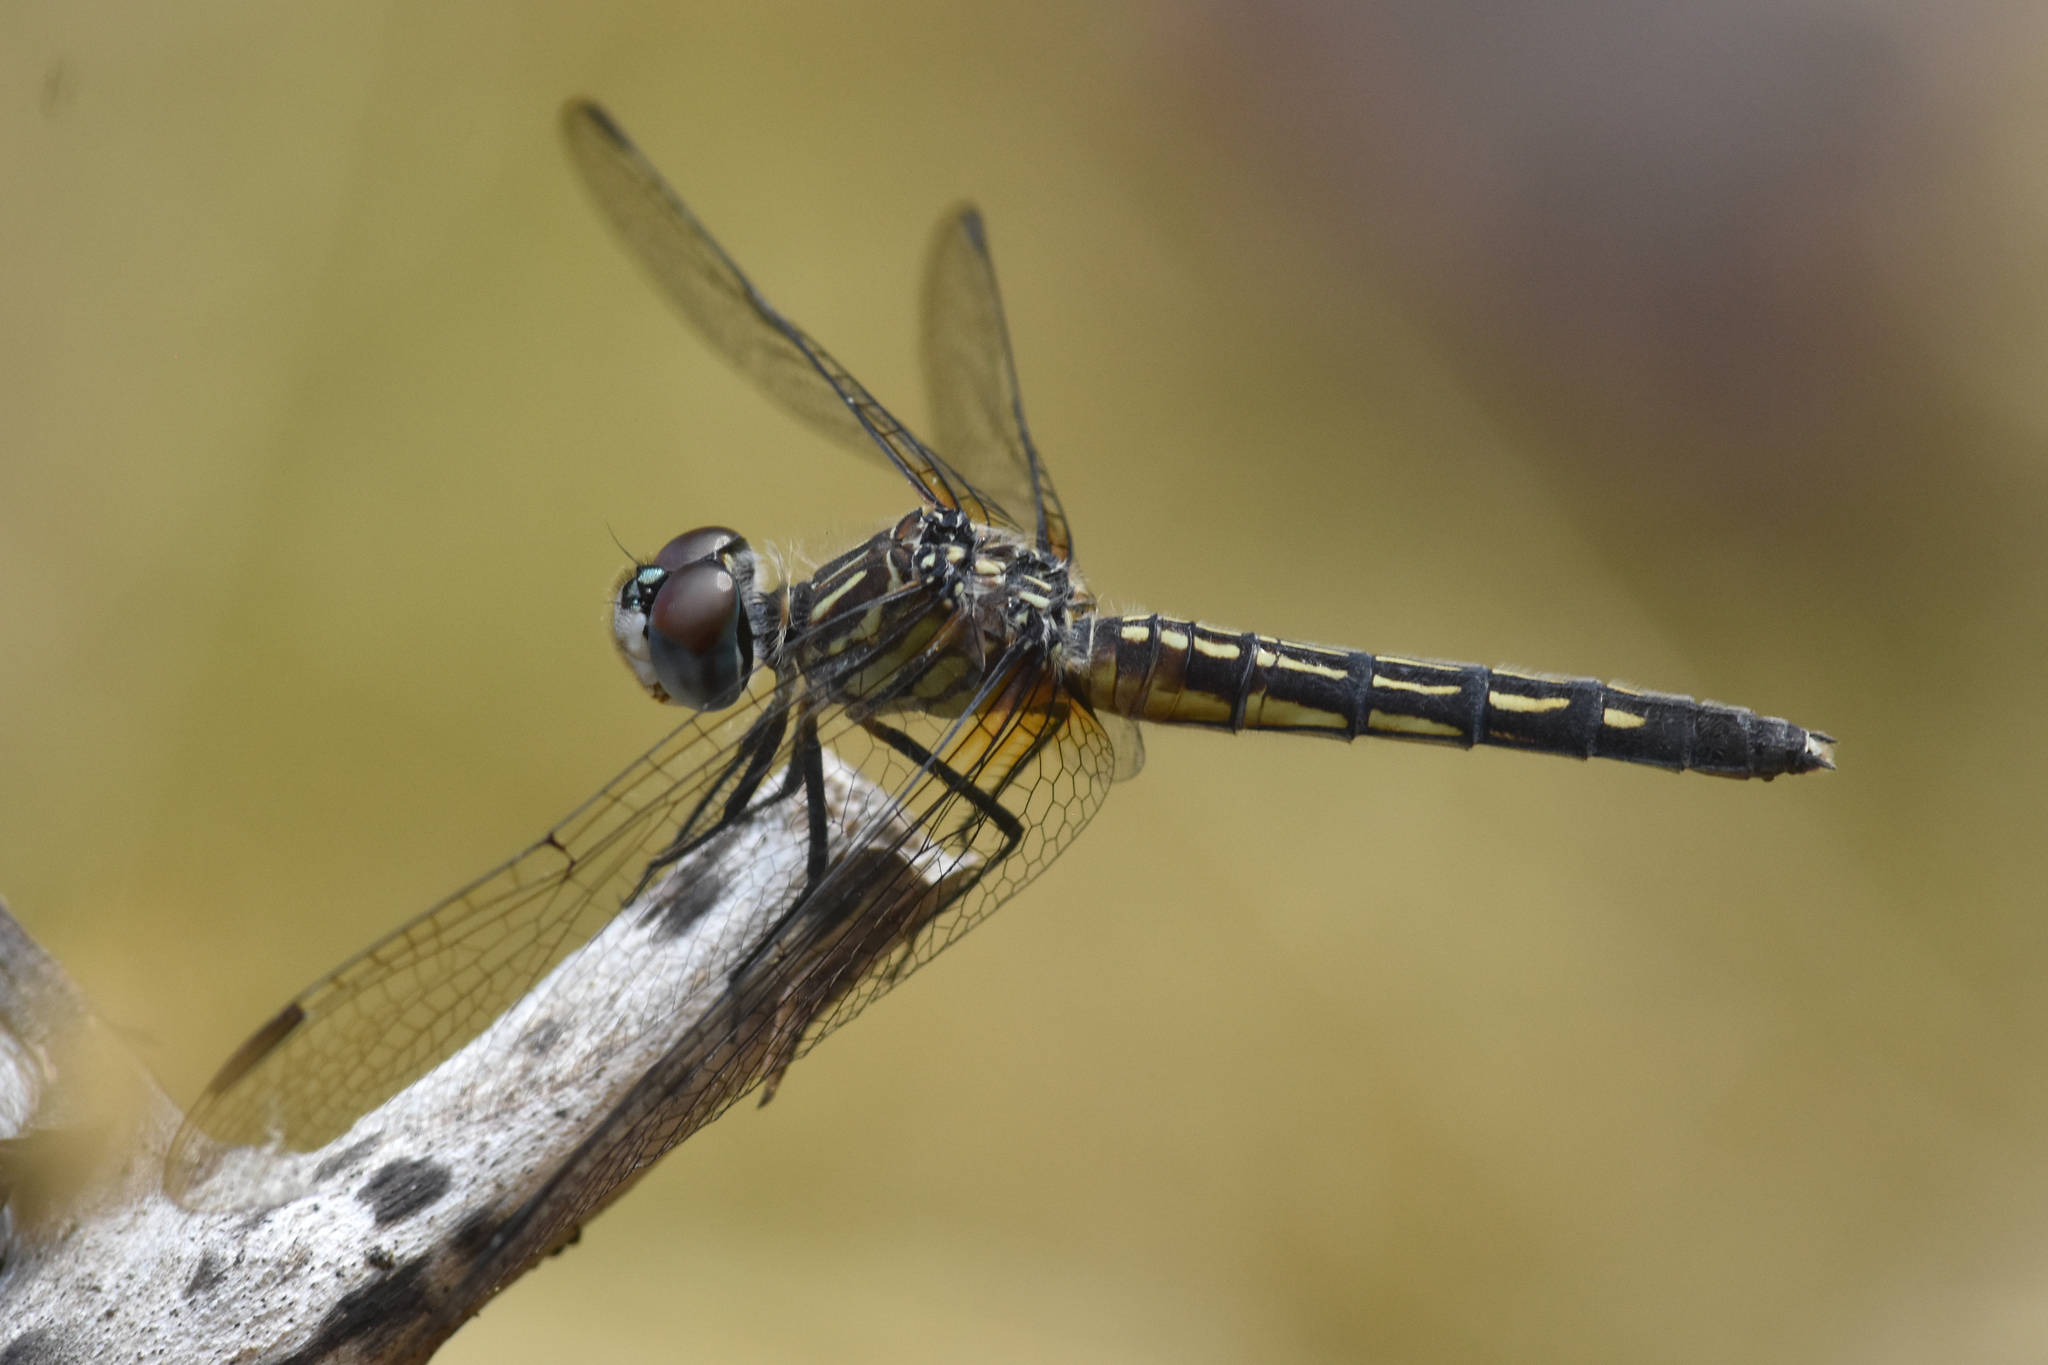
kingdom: Animalia
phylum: Arthropoda
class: Insecta
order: Odonata
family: Libellulidae
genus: Pachydiplax
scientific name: Pachydiplax longipennis
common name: Blue dasher
